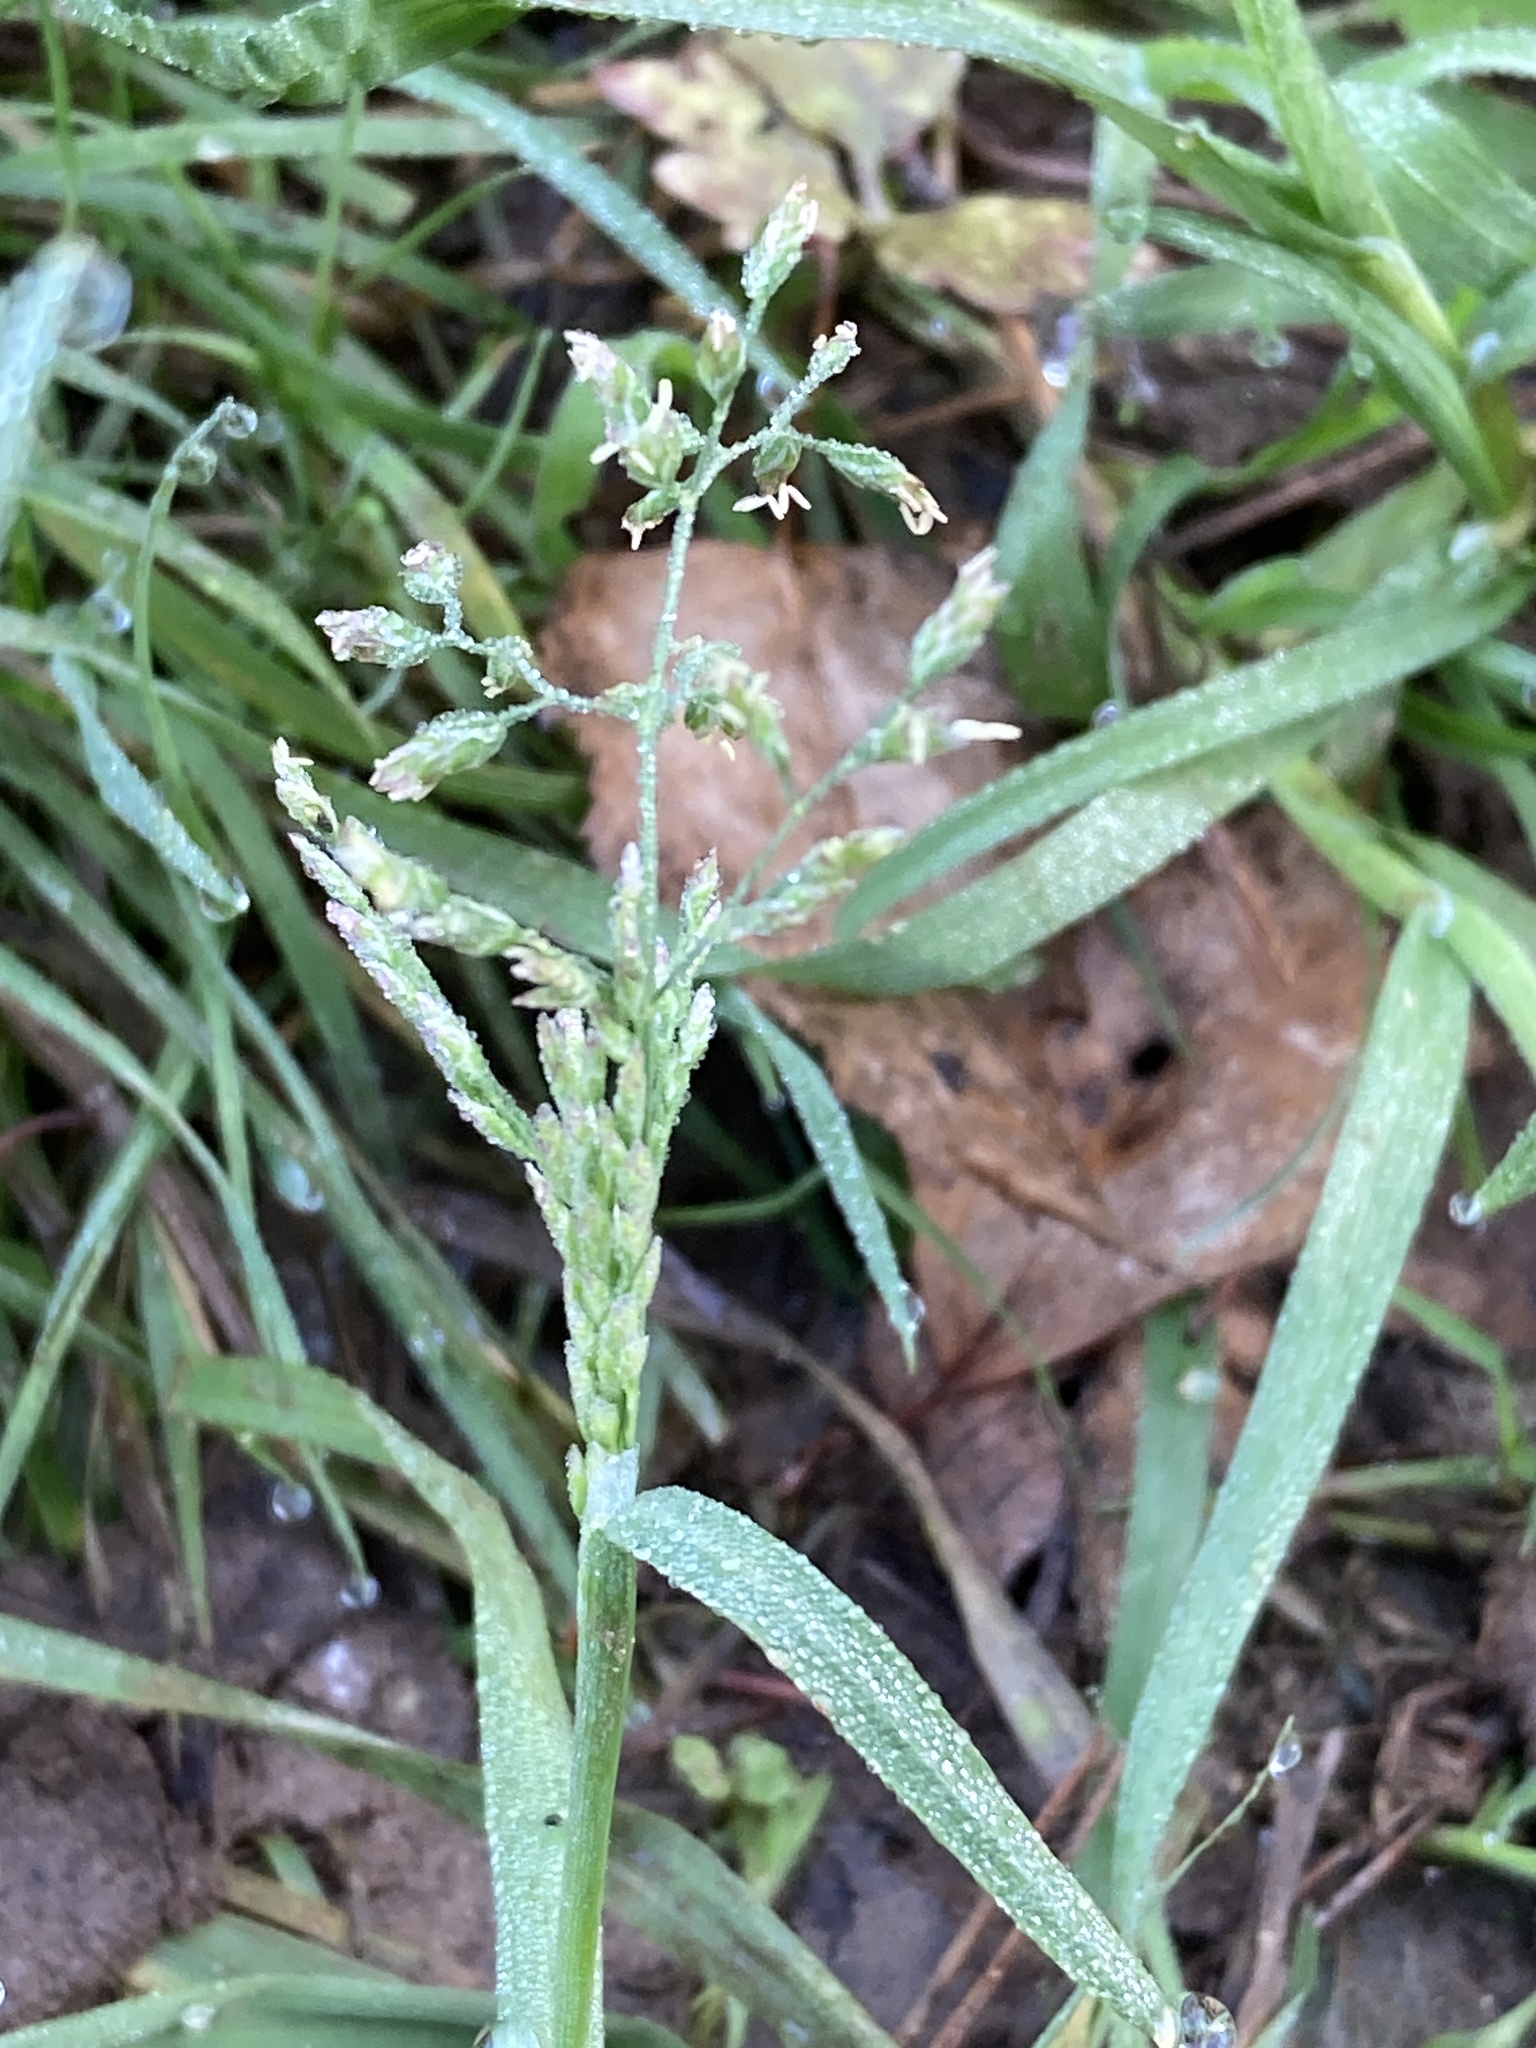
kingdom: Plantae
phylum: Tracheophyta
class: Liliopsida
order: Poales
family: Poaceae
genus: Poa
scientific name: Poa annua
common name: Annual bluegrass
